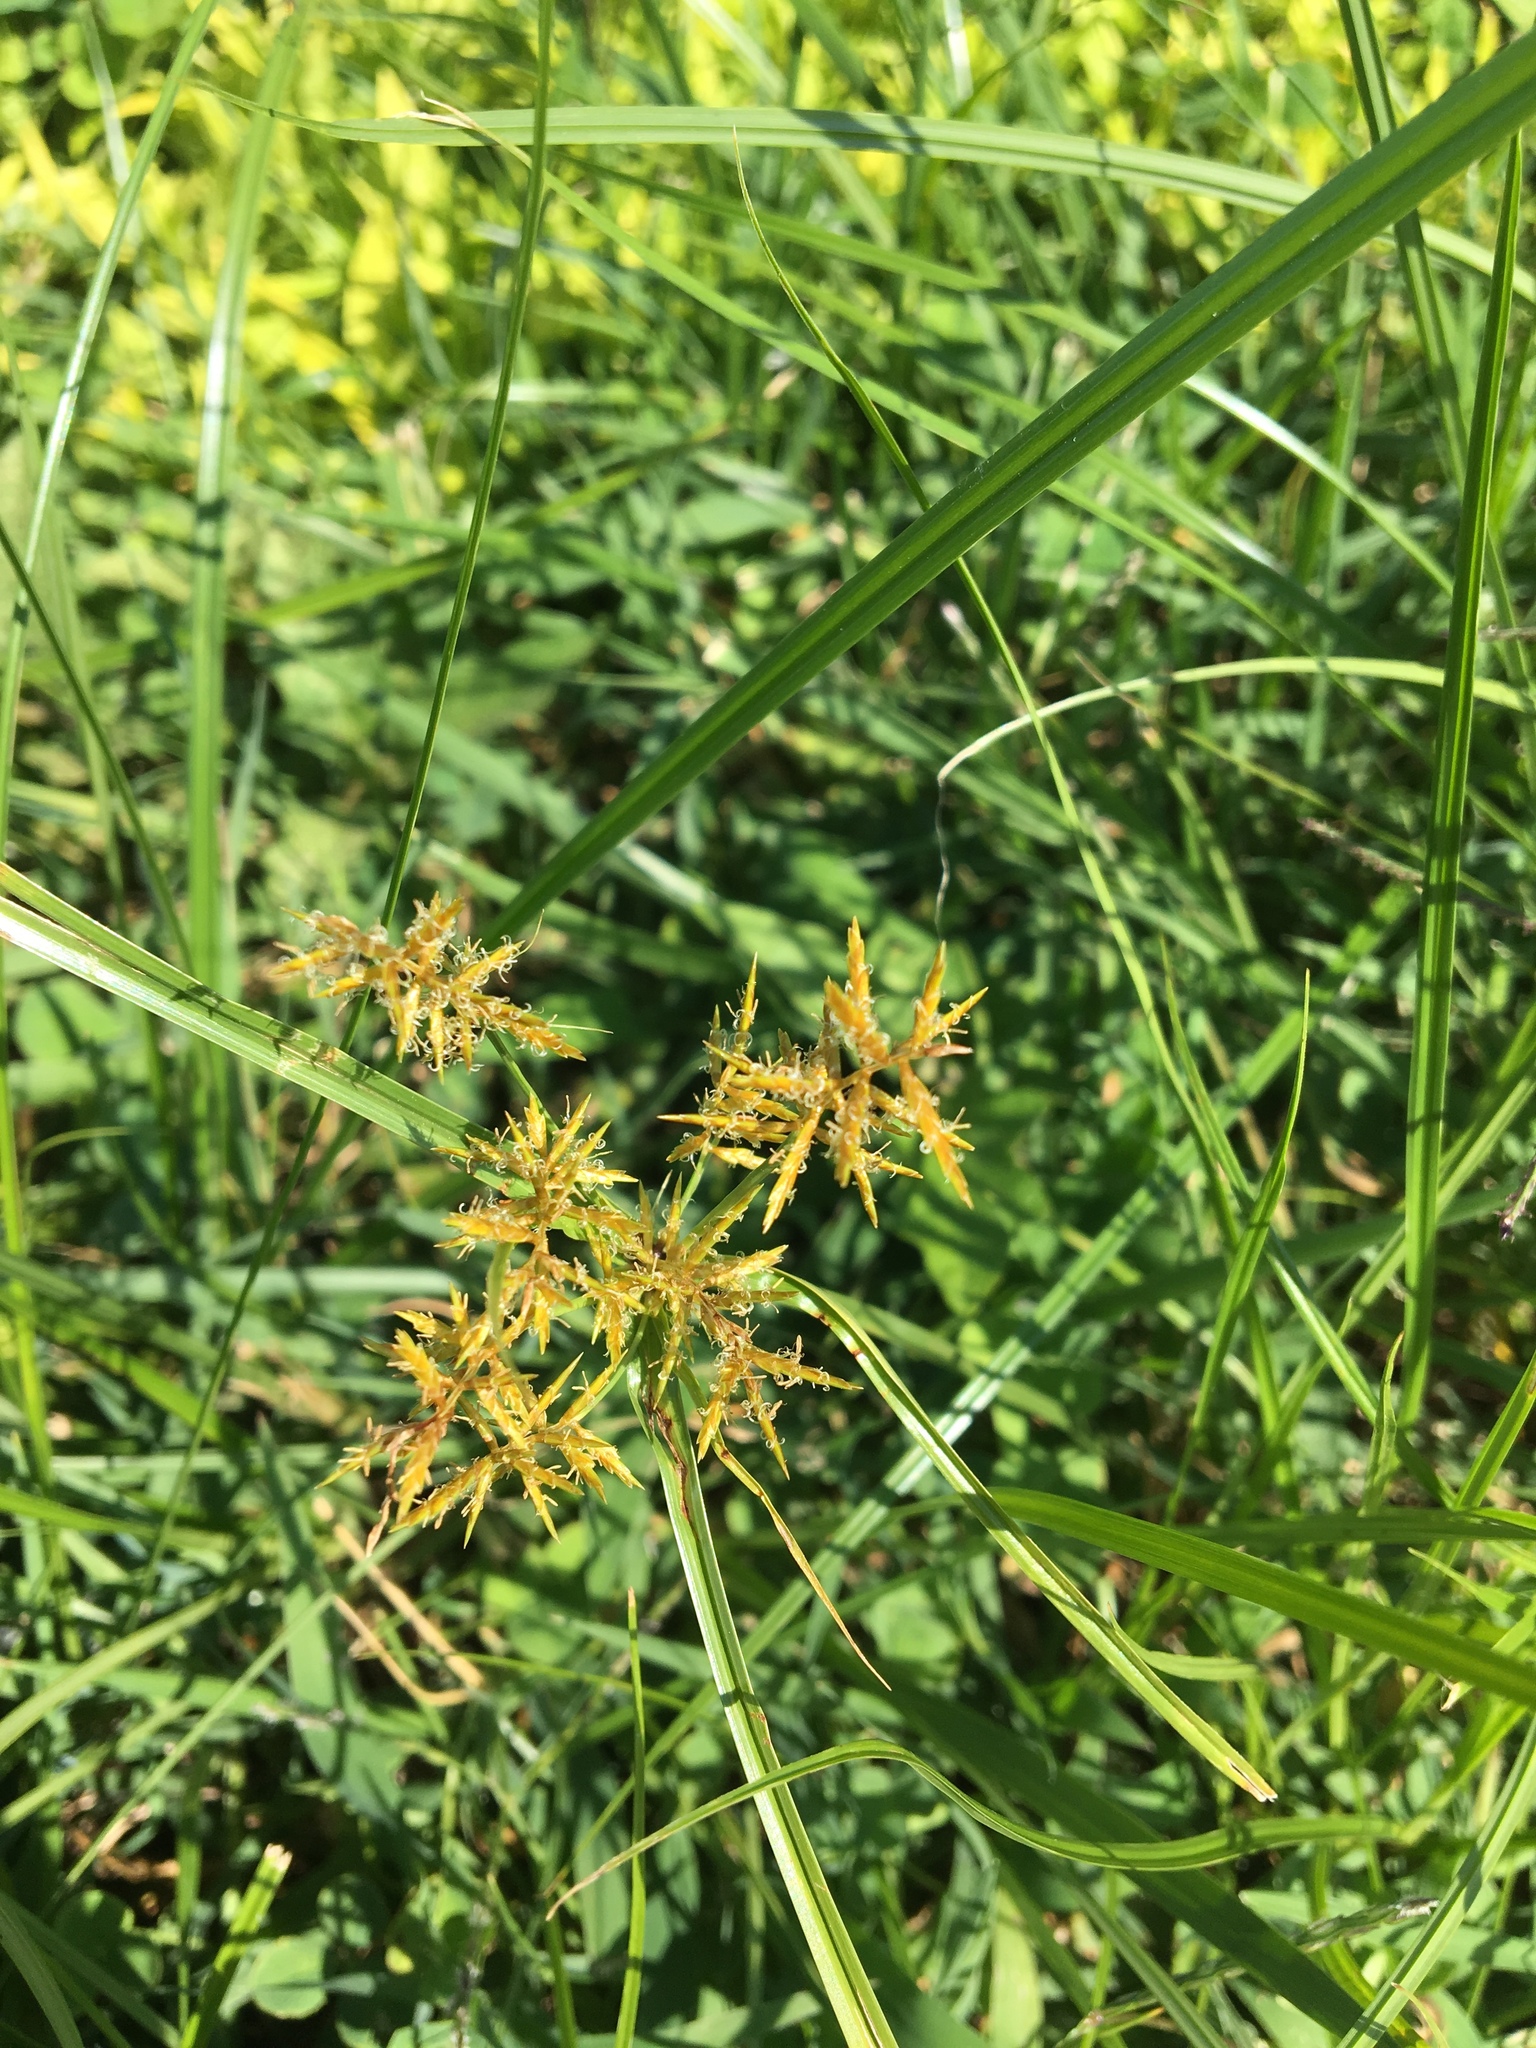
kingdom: Plantae
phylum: Tracheophyta
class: Liliopsida
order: Poales
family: Cyperaceae
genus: Cyperus
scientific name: Cyperus esculentus
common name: Yellow nutsedge
